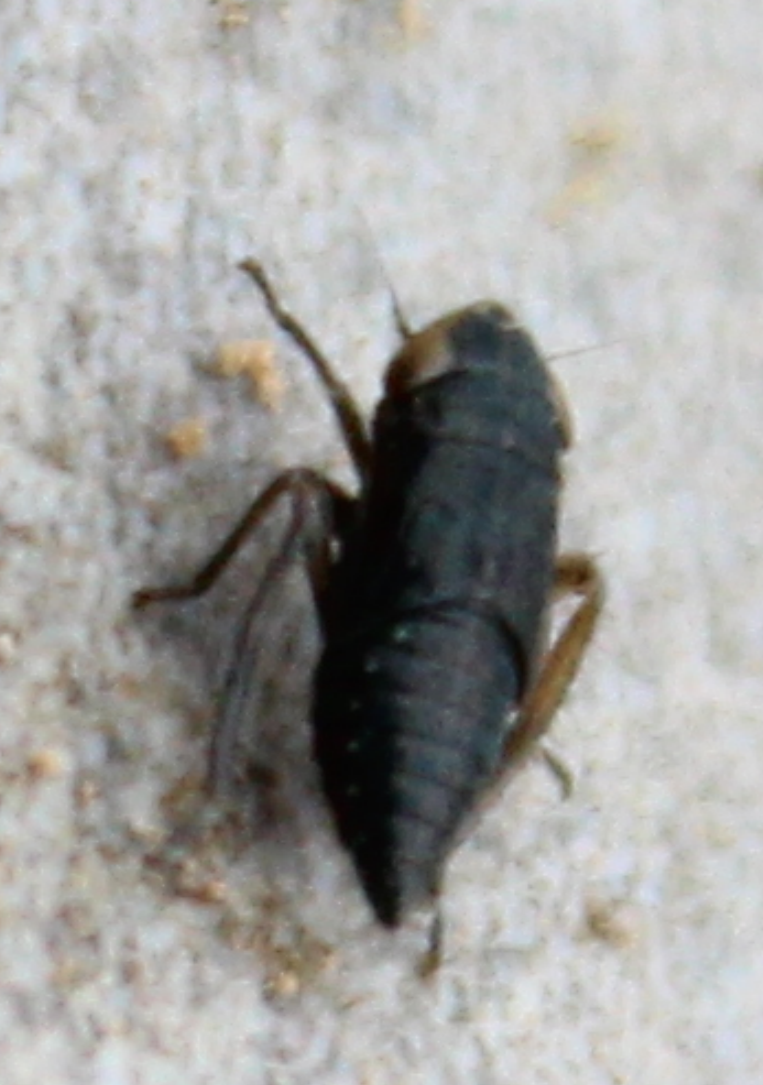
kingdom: Animalia
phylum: Arthropoda
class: Insecta
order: Hemiptera
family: Cicadellidae
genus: Euscelis
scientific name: Euscelis incisa
